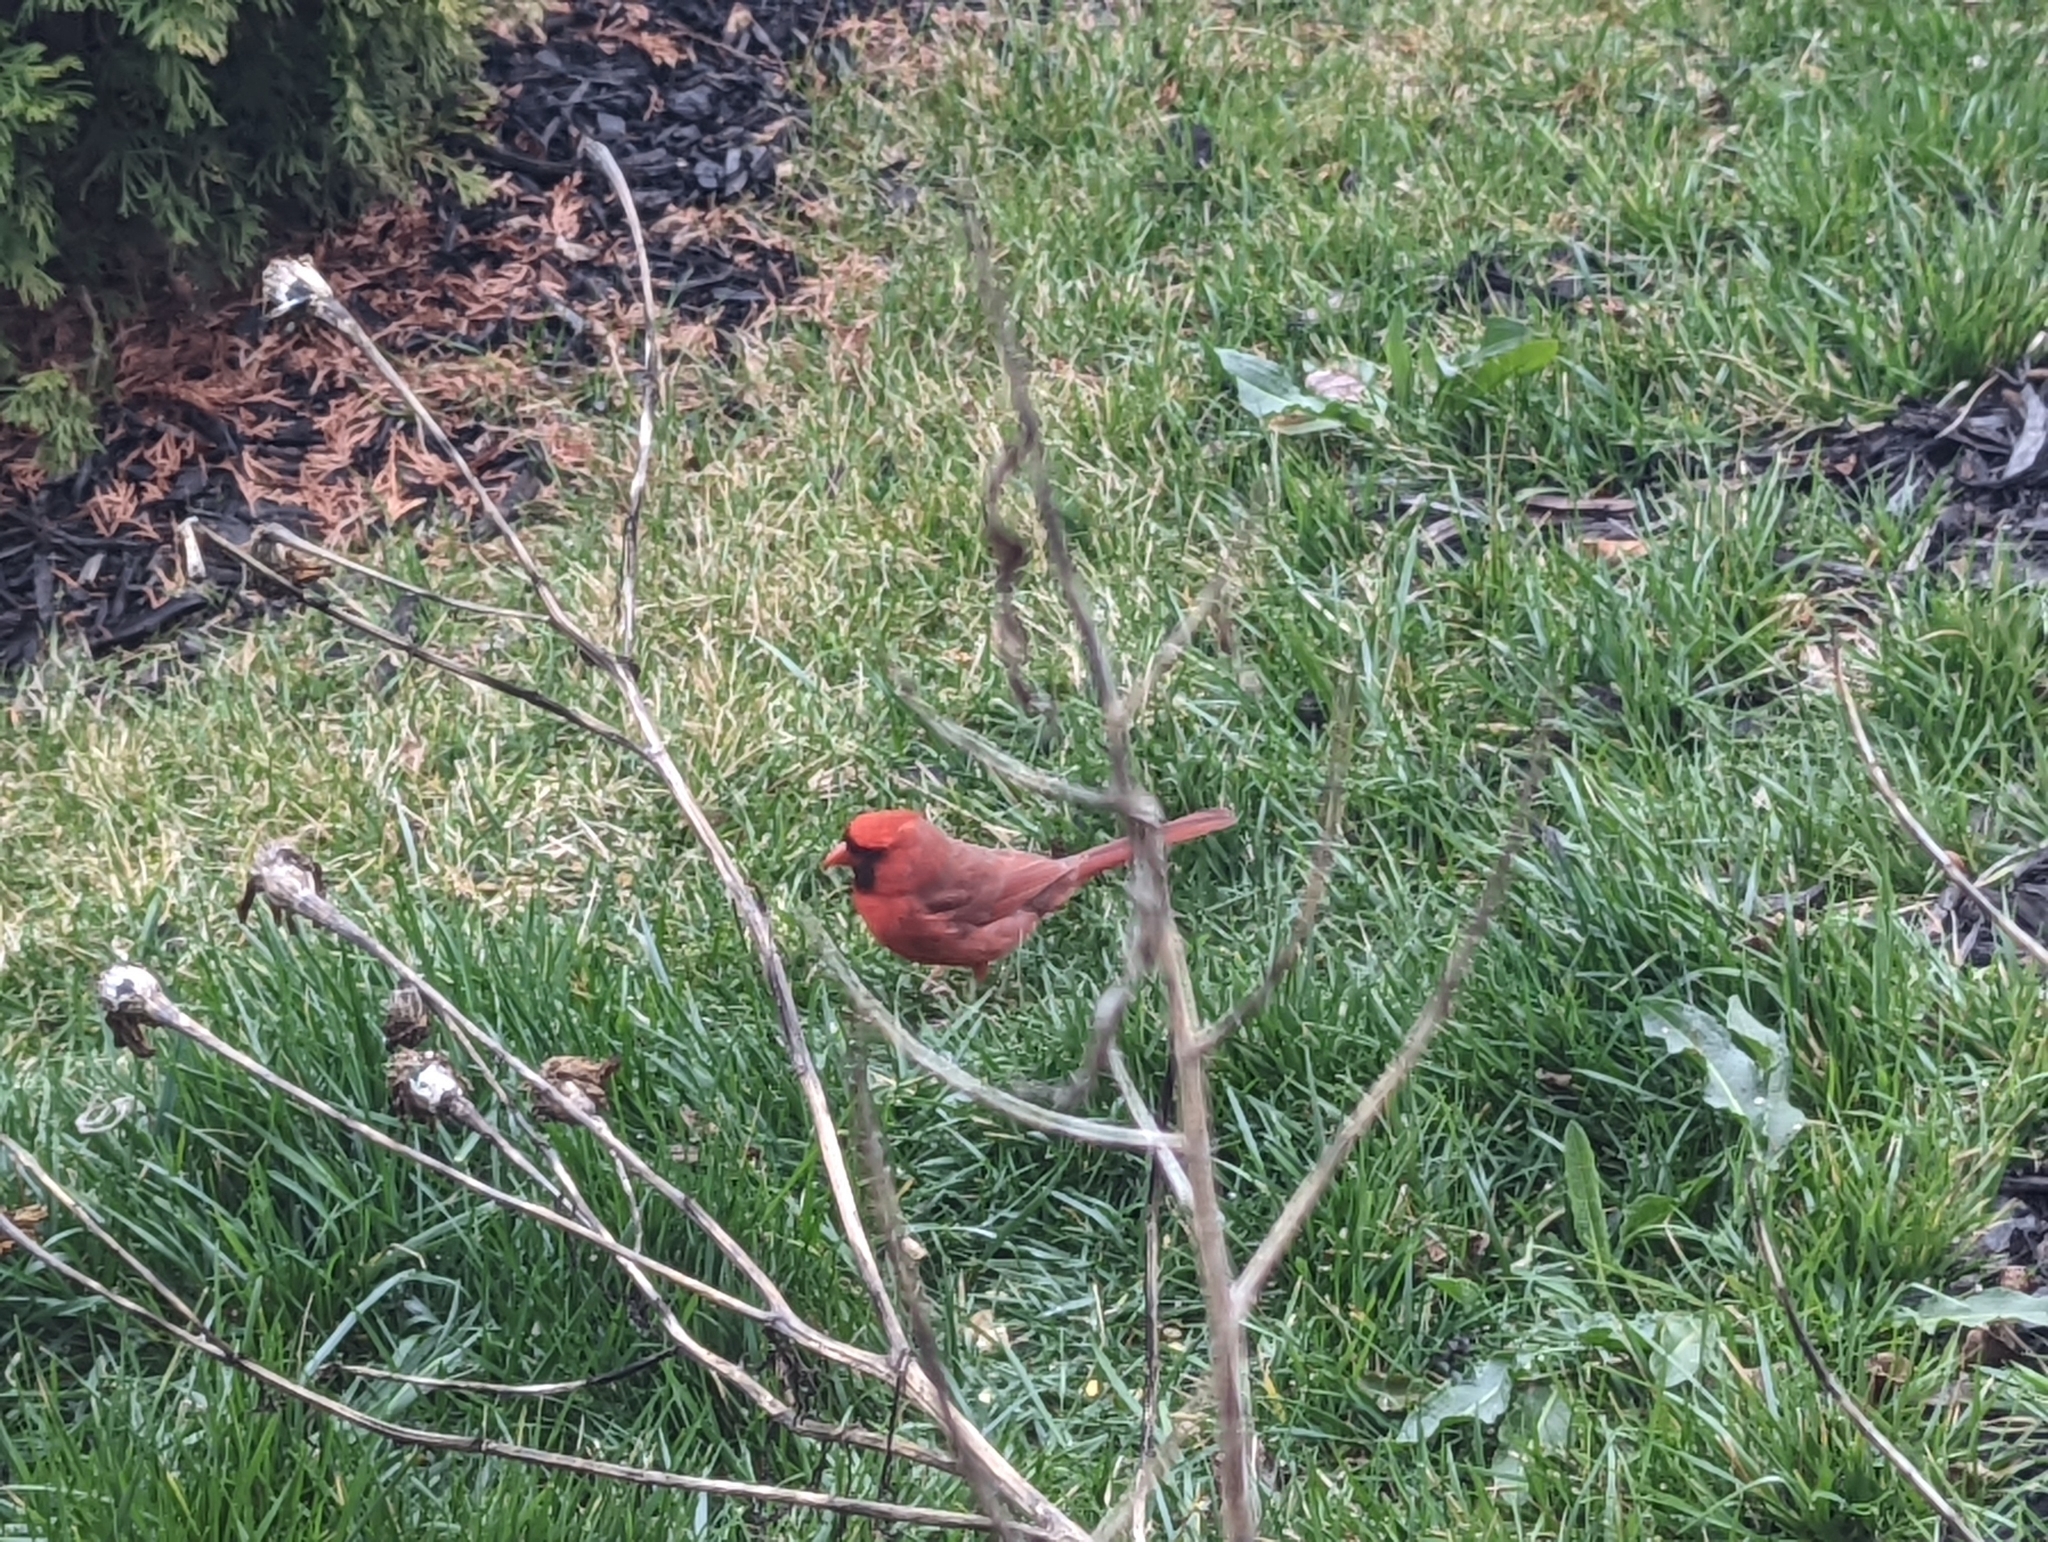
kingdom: Animalia
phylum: Chordata
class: Aves
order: Passeriformes
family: Cardinalidae
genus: Cardinalis
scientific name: Cardinalis cardinalis
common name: Northern cardinal
